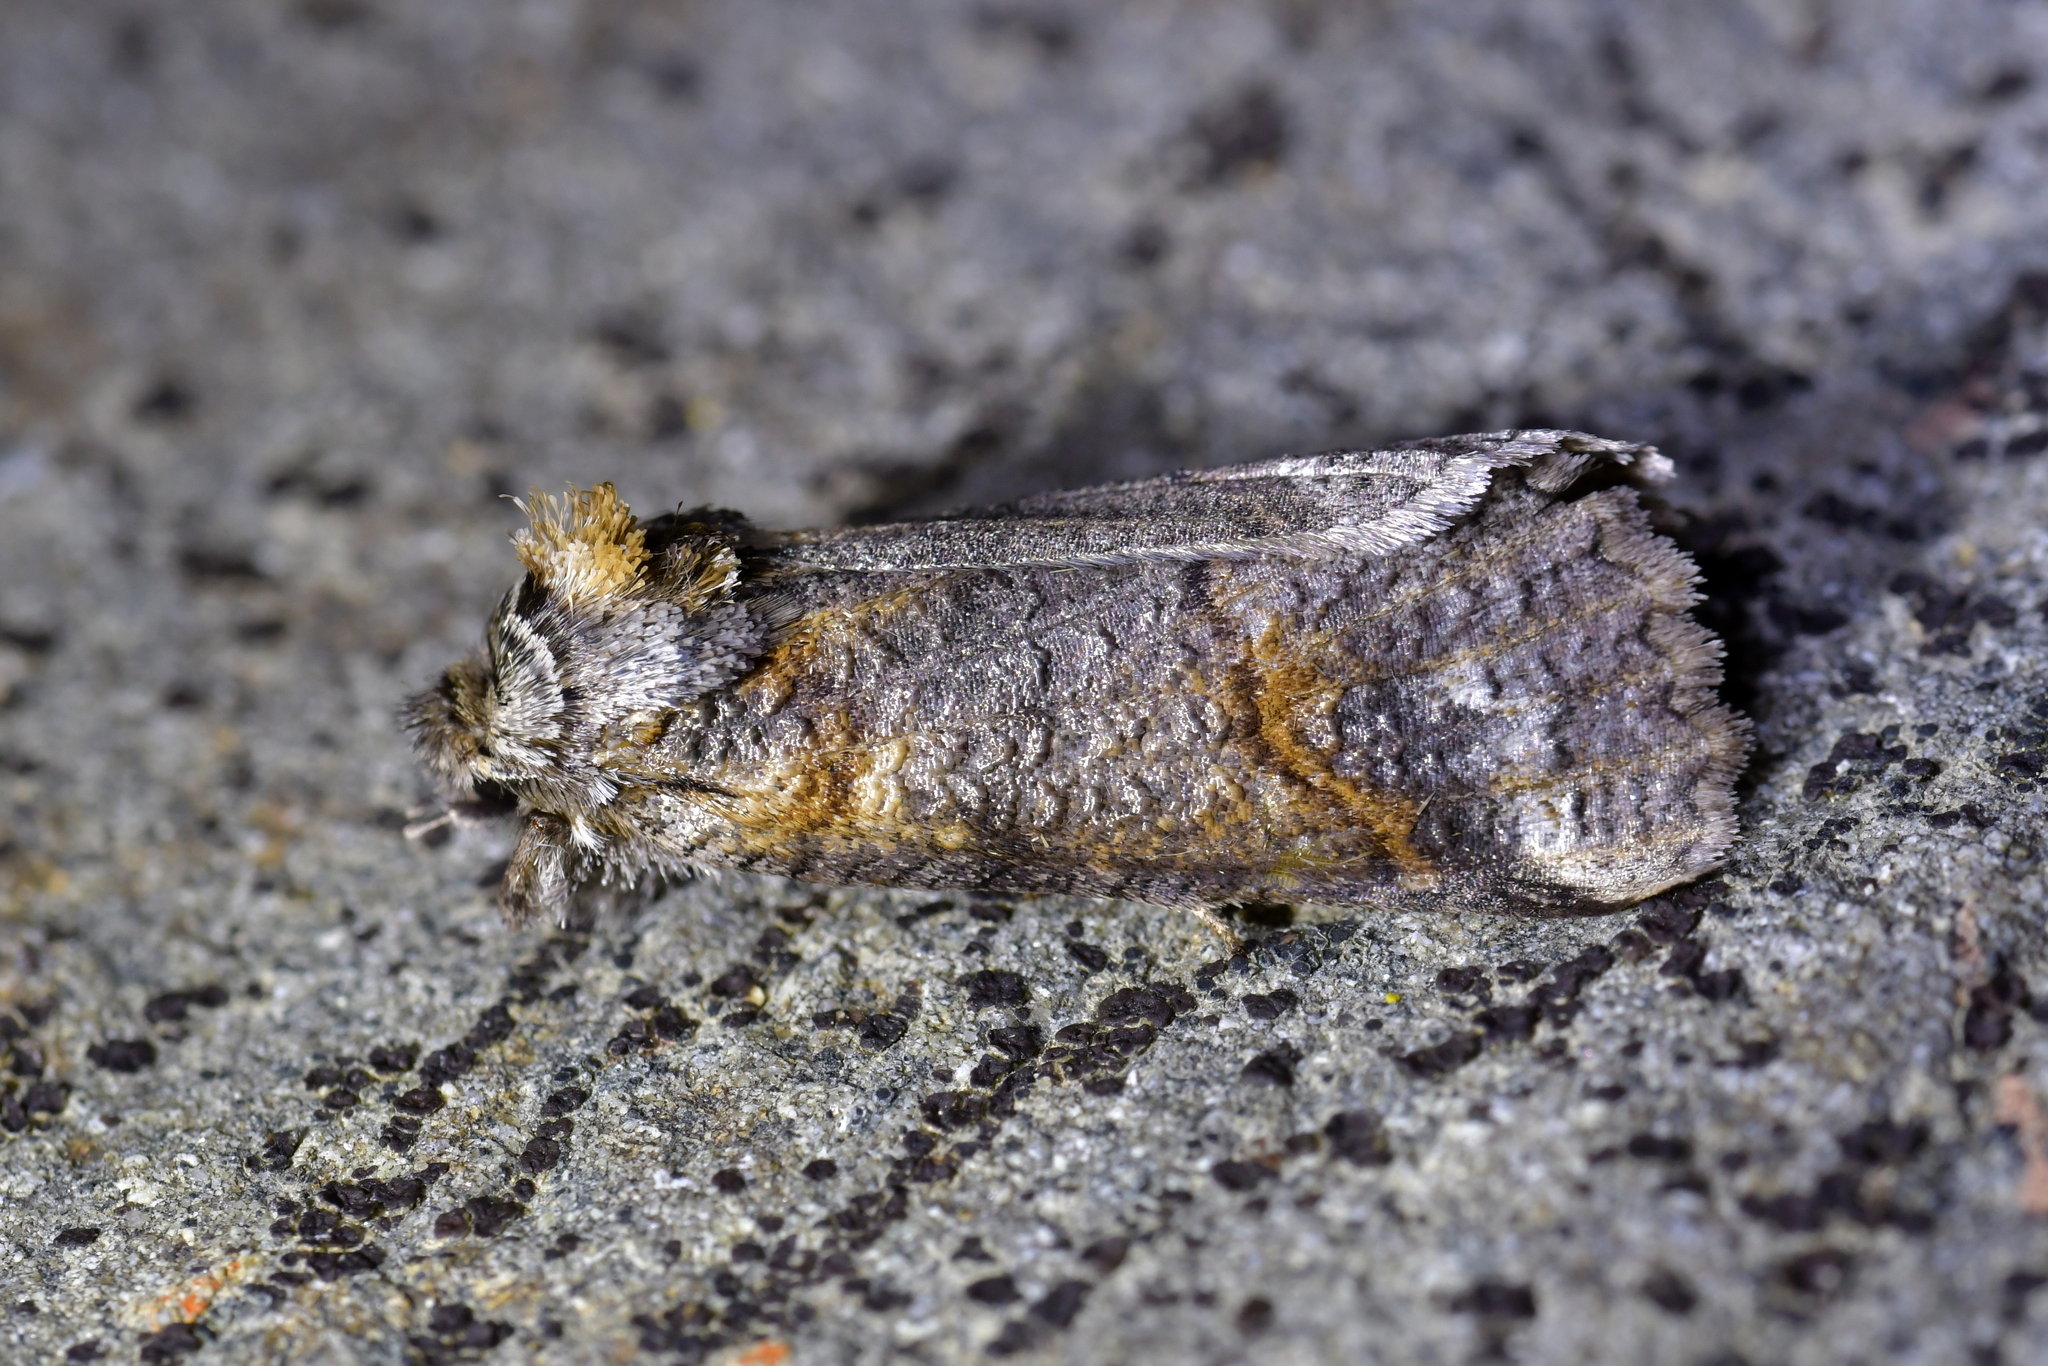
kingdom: Animalia
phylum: Arthropoda
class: Insecta
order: Lepidoptera
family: Geometridae
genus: Declana
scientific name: Declana
